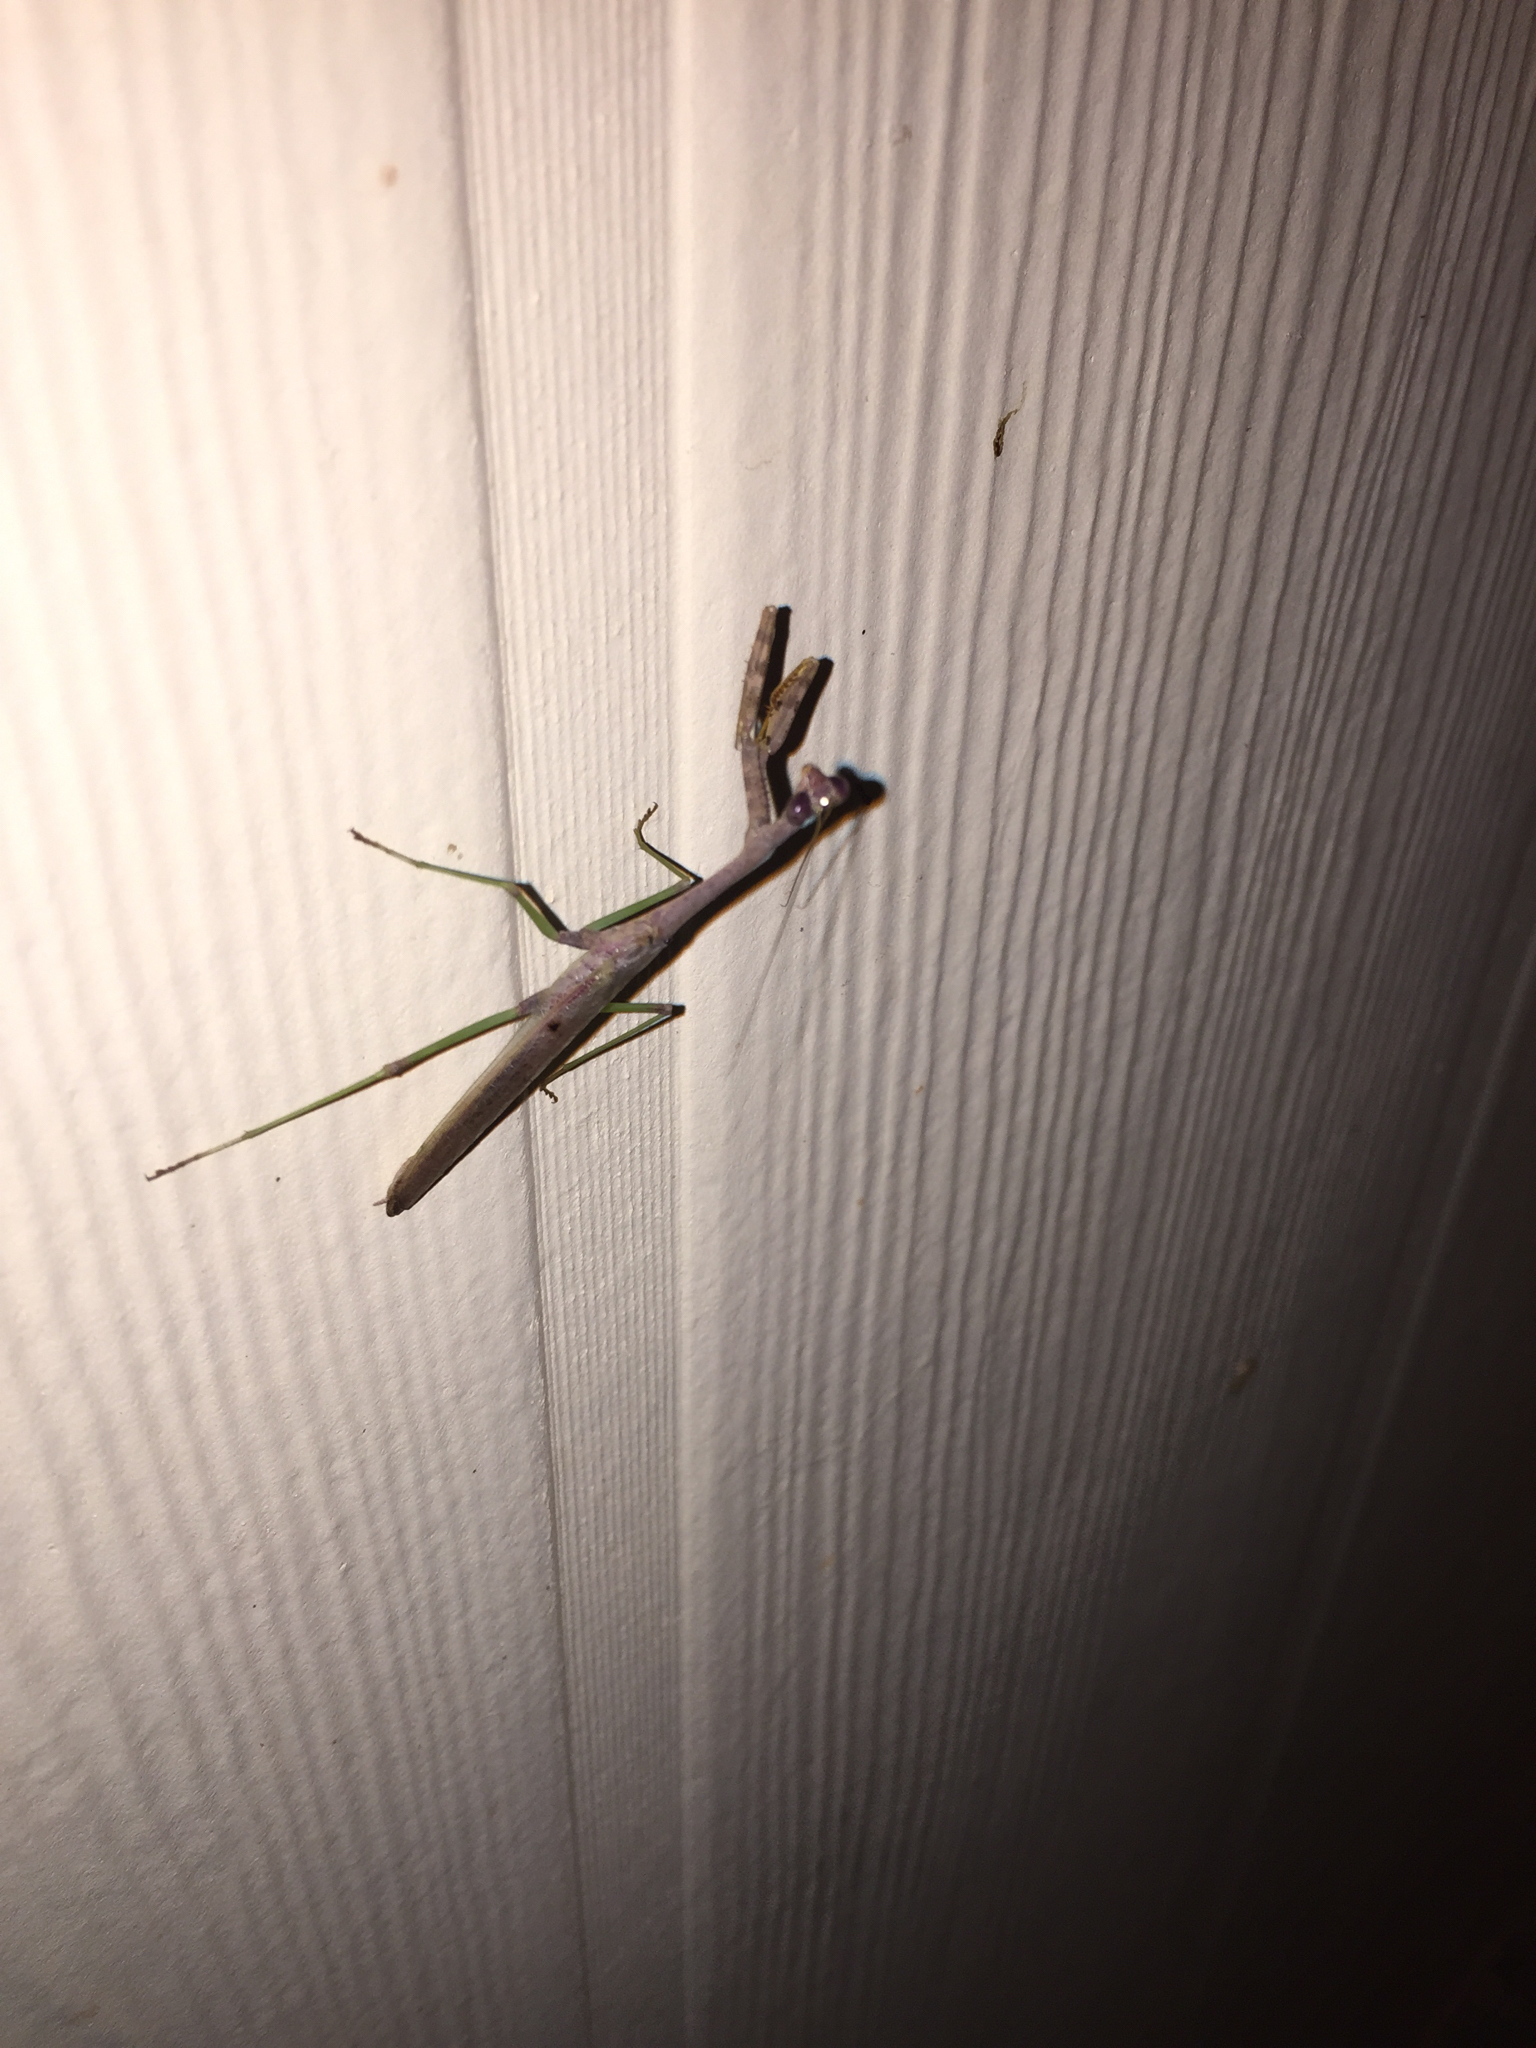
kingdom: Animalia
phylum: Arthropoda
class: Insecta
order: Mantodea
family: Mantidae
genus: Stagmomantis
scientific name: Stagmomantis carolina
